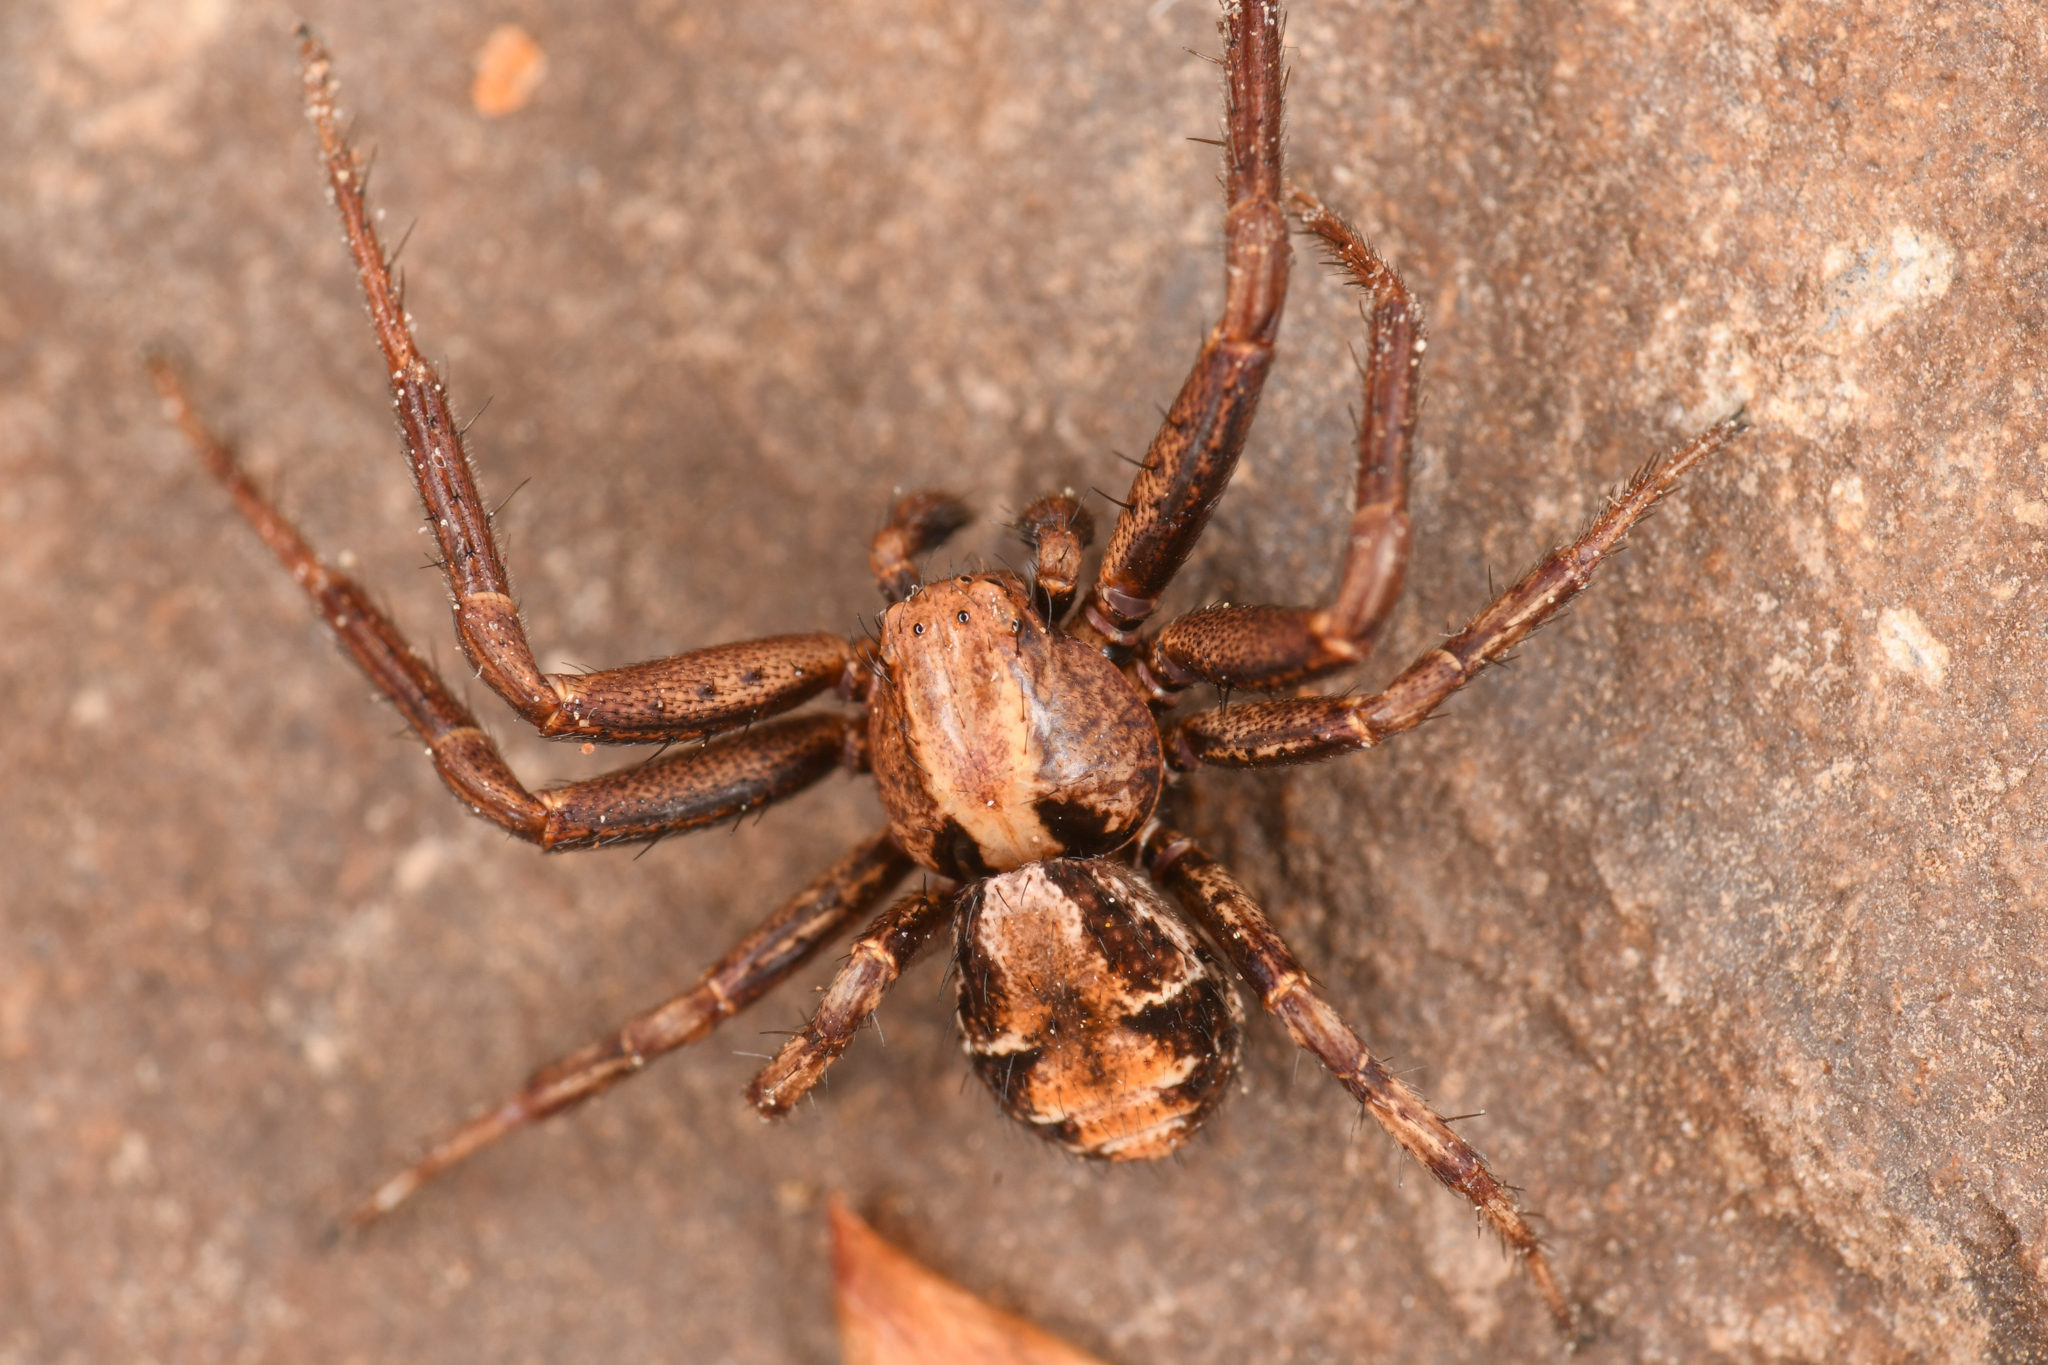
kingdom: Animalia
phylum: Arthropoda
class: Arachnida
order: Araneae
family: Thomisidae
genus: Spiracme
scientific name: Spiracme triangulosa
